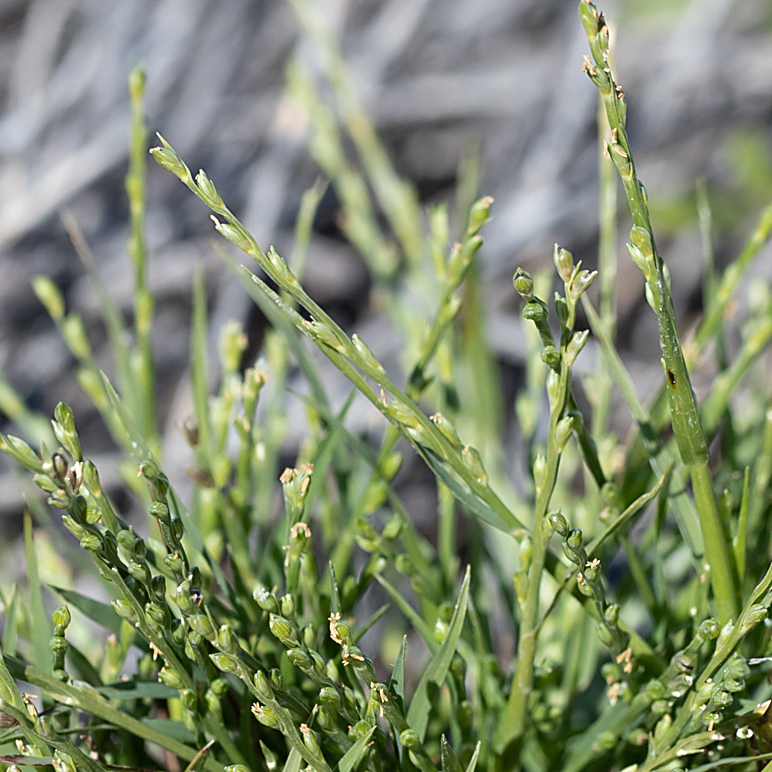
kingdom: Plantae
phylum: Tracheophyta
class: Liliopsida
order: Poales
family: Poaceae
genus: Setaria
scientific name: Setaria rara
